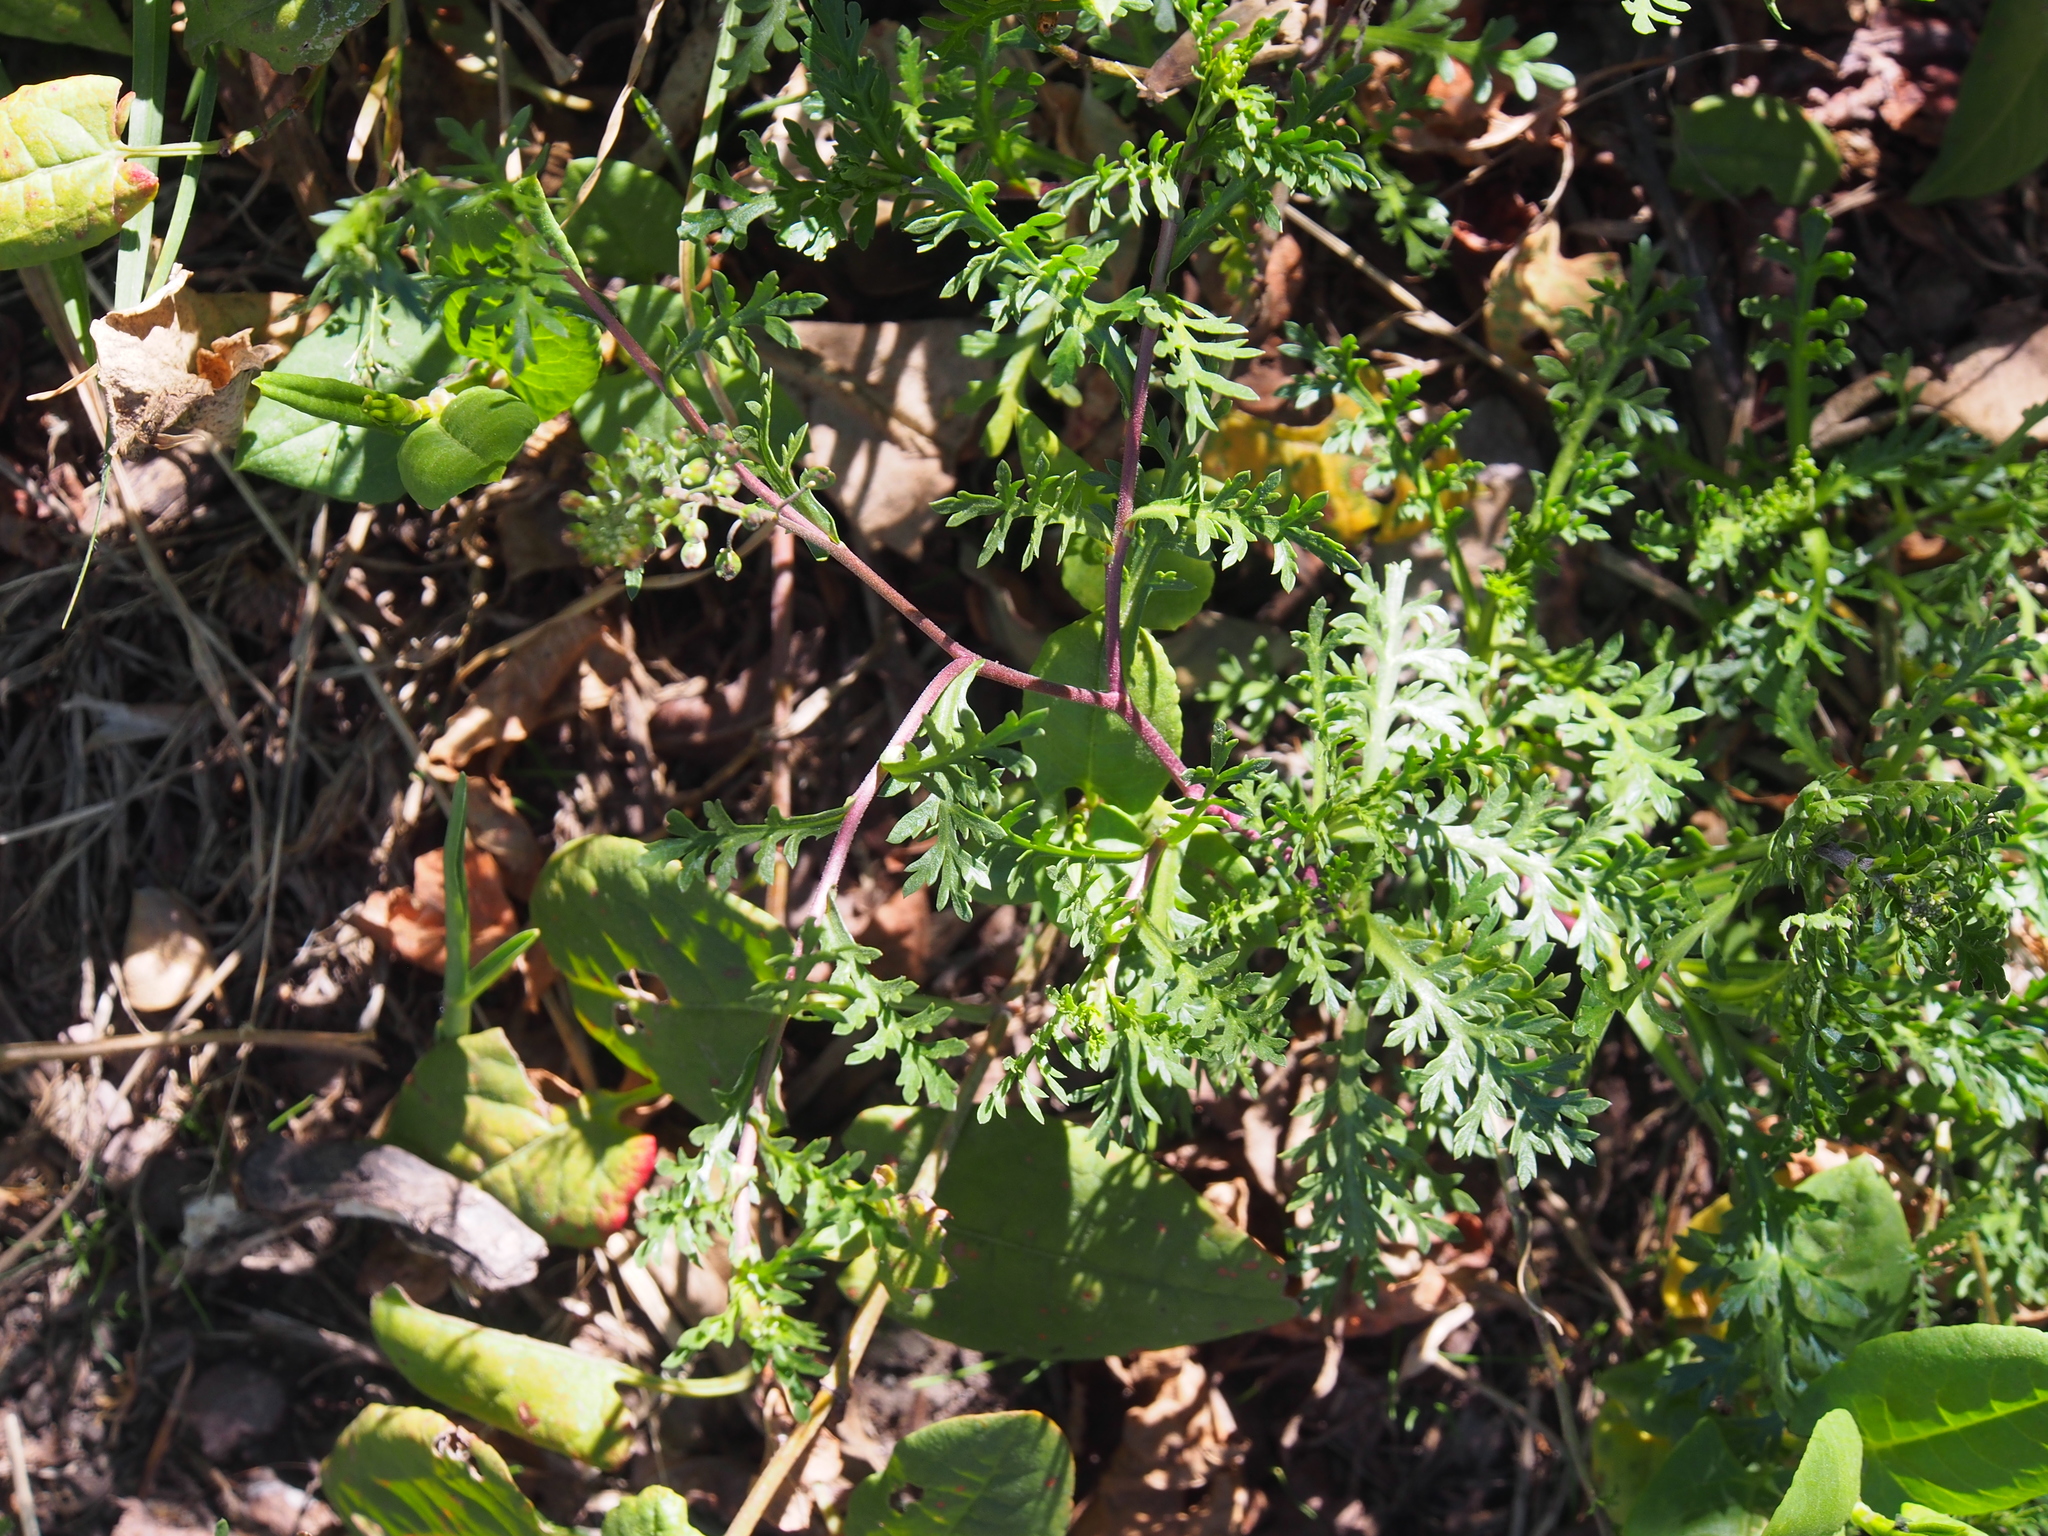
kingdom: Plantae
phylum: Tracheophyta
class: Magnoliopsida
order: Brassicales
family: Brassicaceae
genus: Lepidium
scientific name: Lepidium bipinnatifidum
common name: Wayside pepperwort
